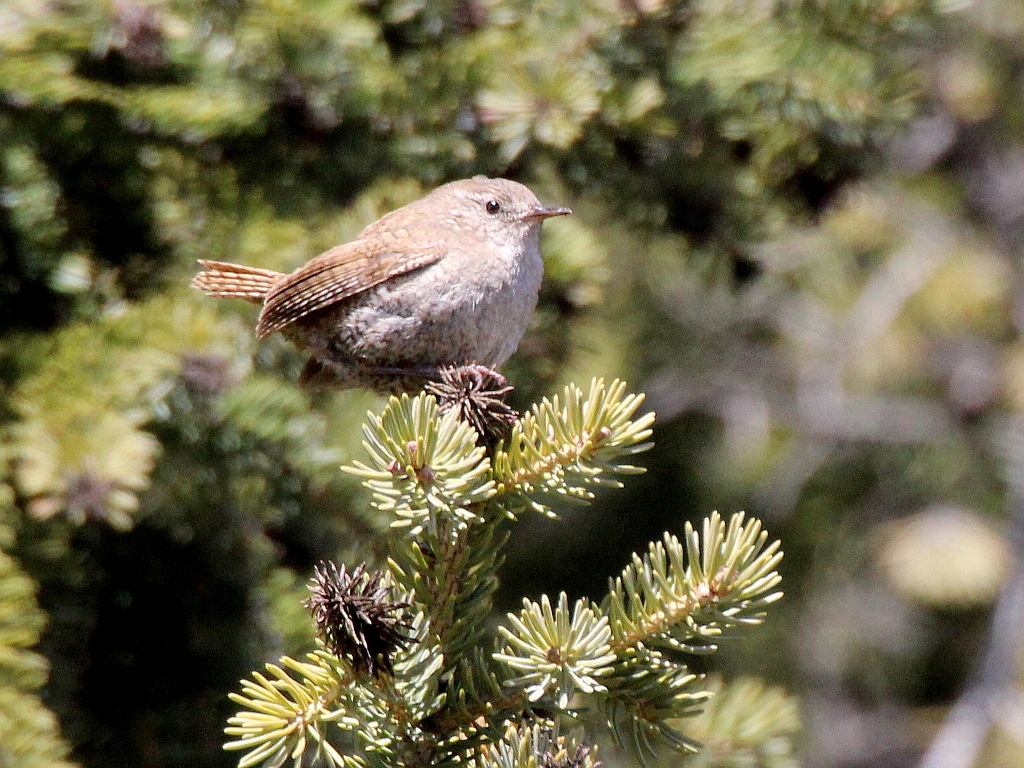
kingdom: Animalia
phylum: Chordata
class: Aves
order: Passeriformes
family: Troglodytidae
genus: Troglodytes
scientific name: Troglodytes troglodytes
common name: Eurasian wren
